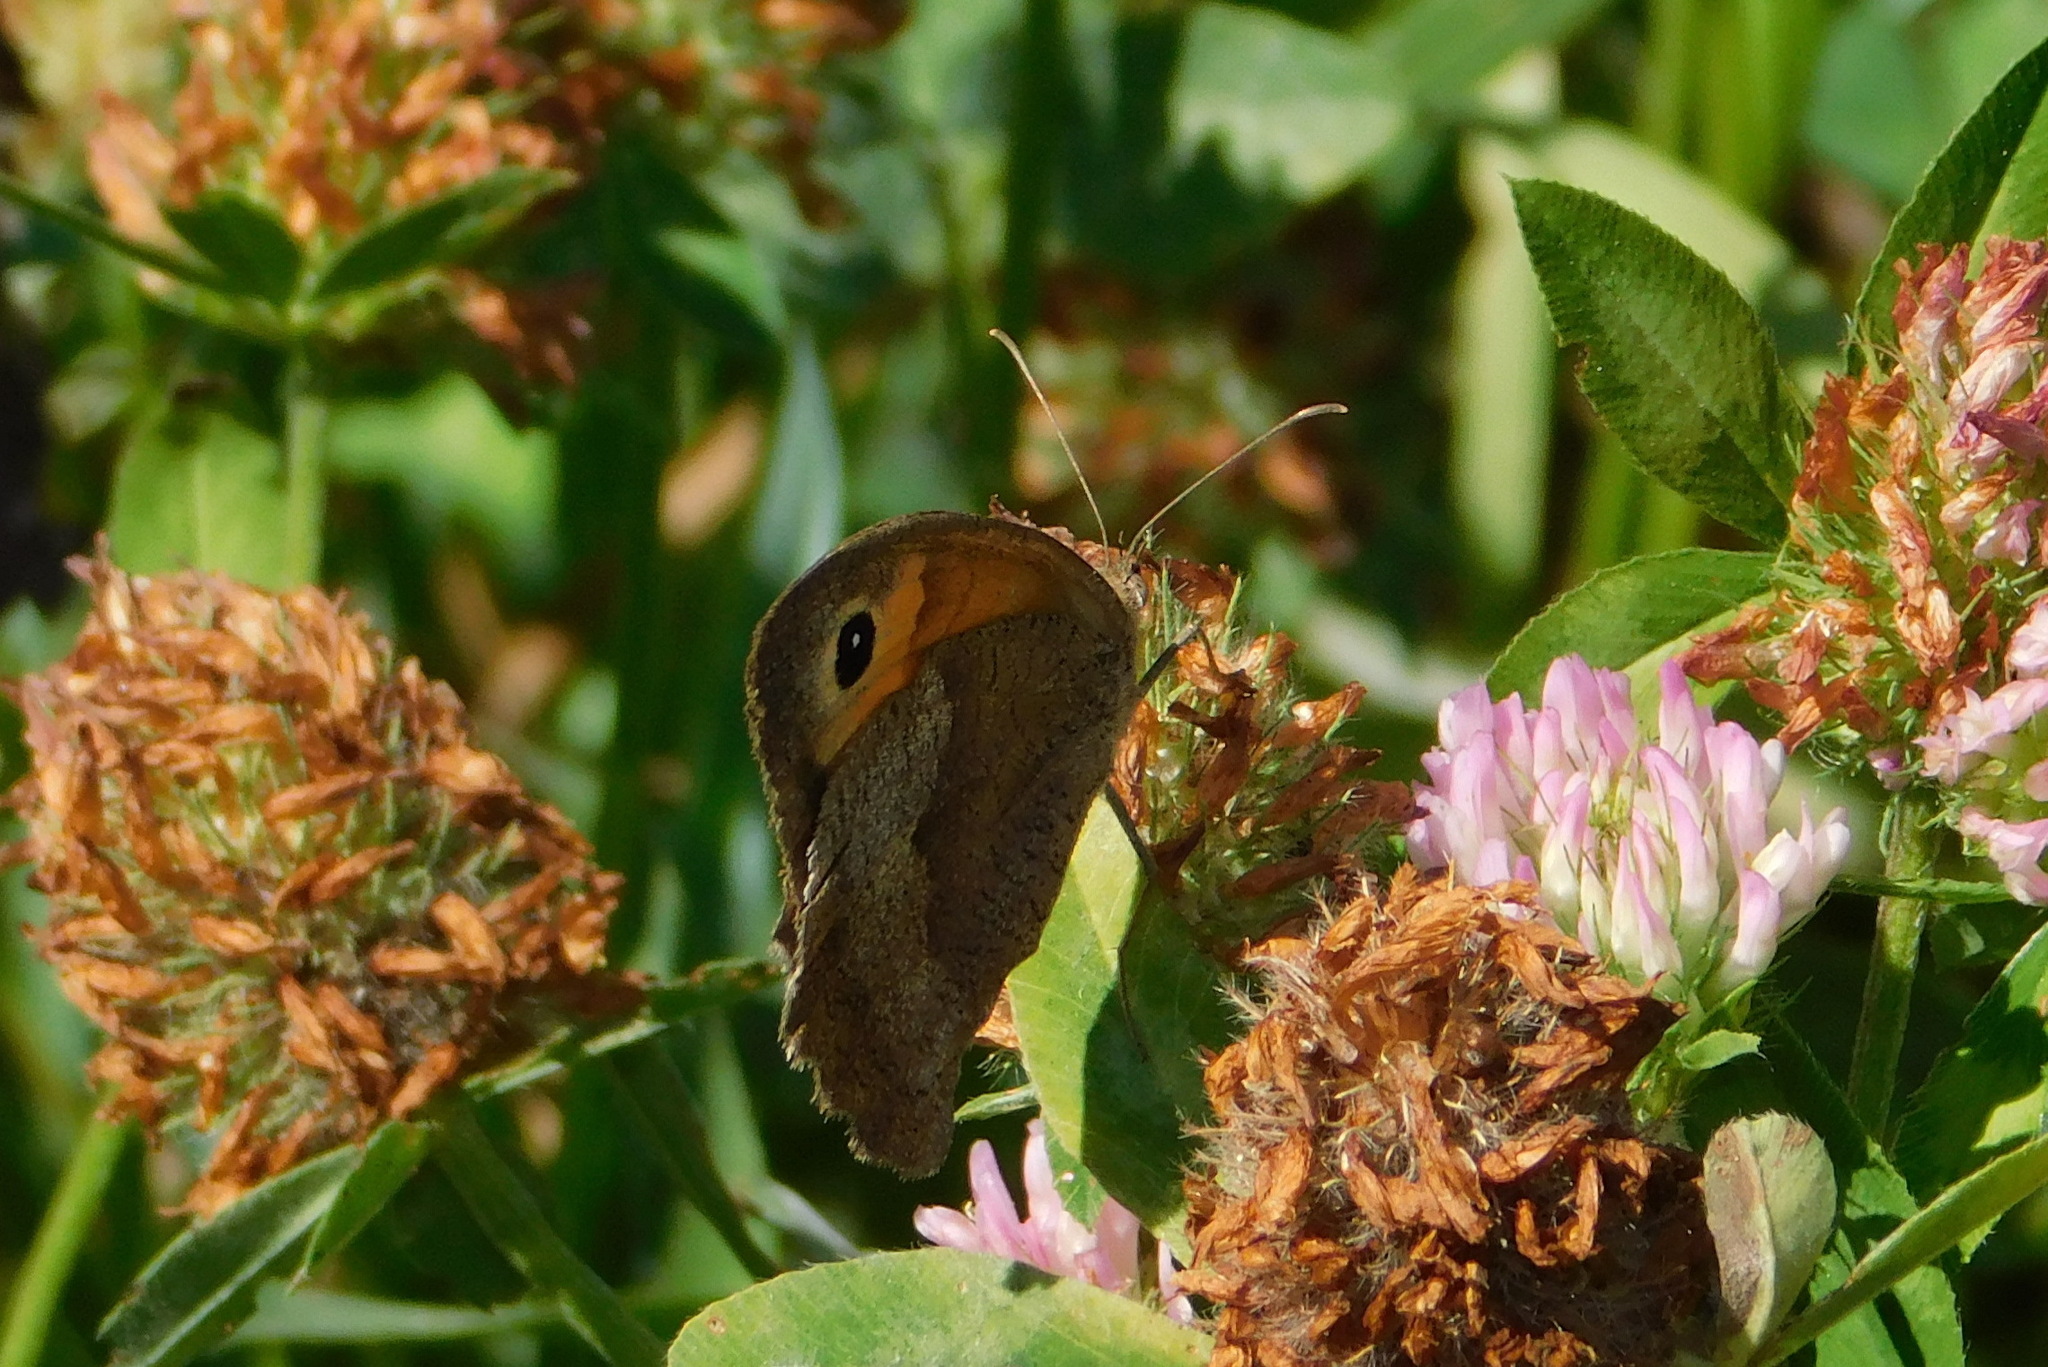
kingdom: Animalia
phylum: Arthropoda
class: Insecta
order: Lepidoptera
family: Nymphalidae
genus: Maniola
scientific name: Maniola jurtina
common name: Meadow brown
